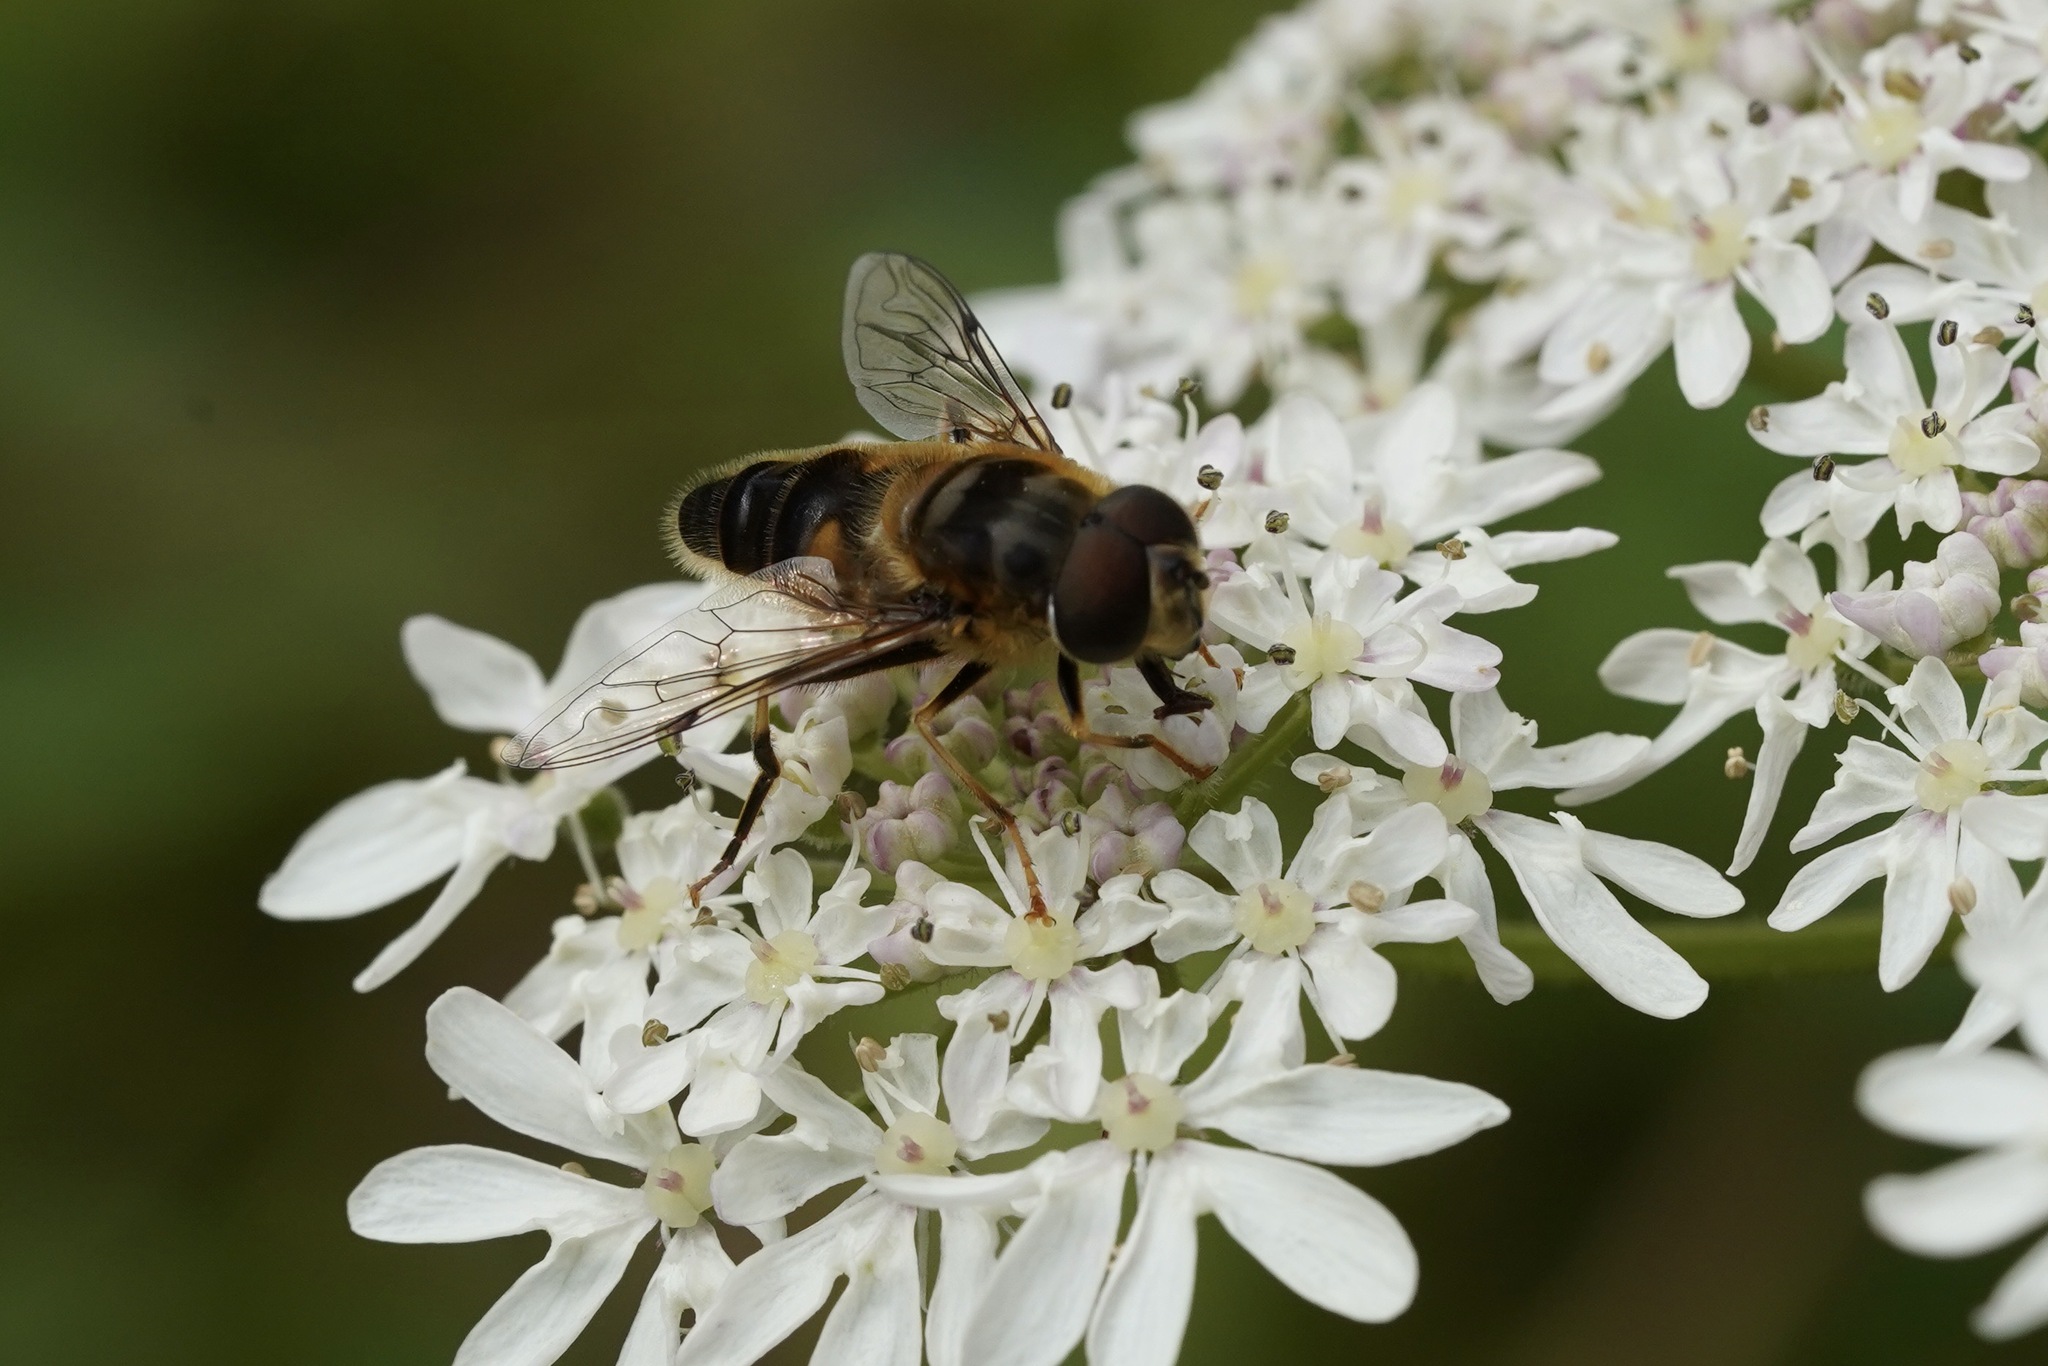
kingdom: Animalia
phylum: Arthropoda
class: Insecta
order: Diptera
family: Syrphidae
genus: Eristalis
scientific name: Eristalis pertinax
